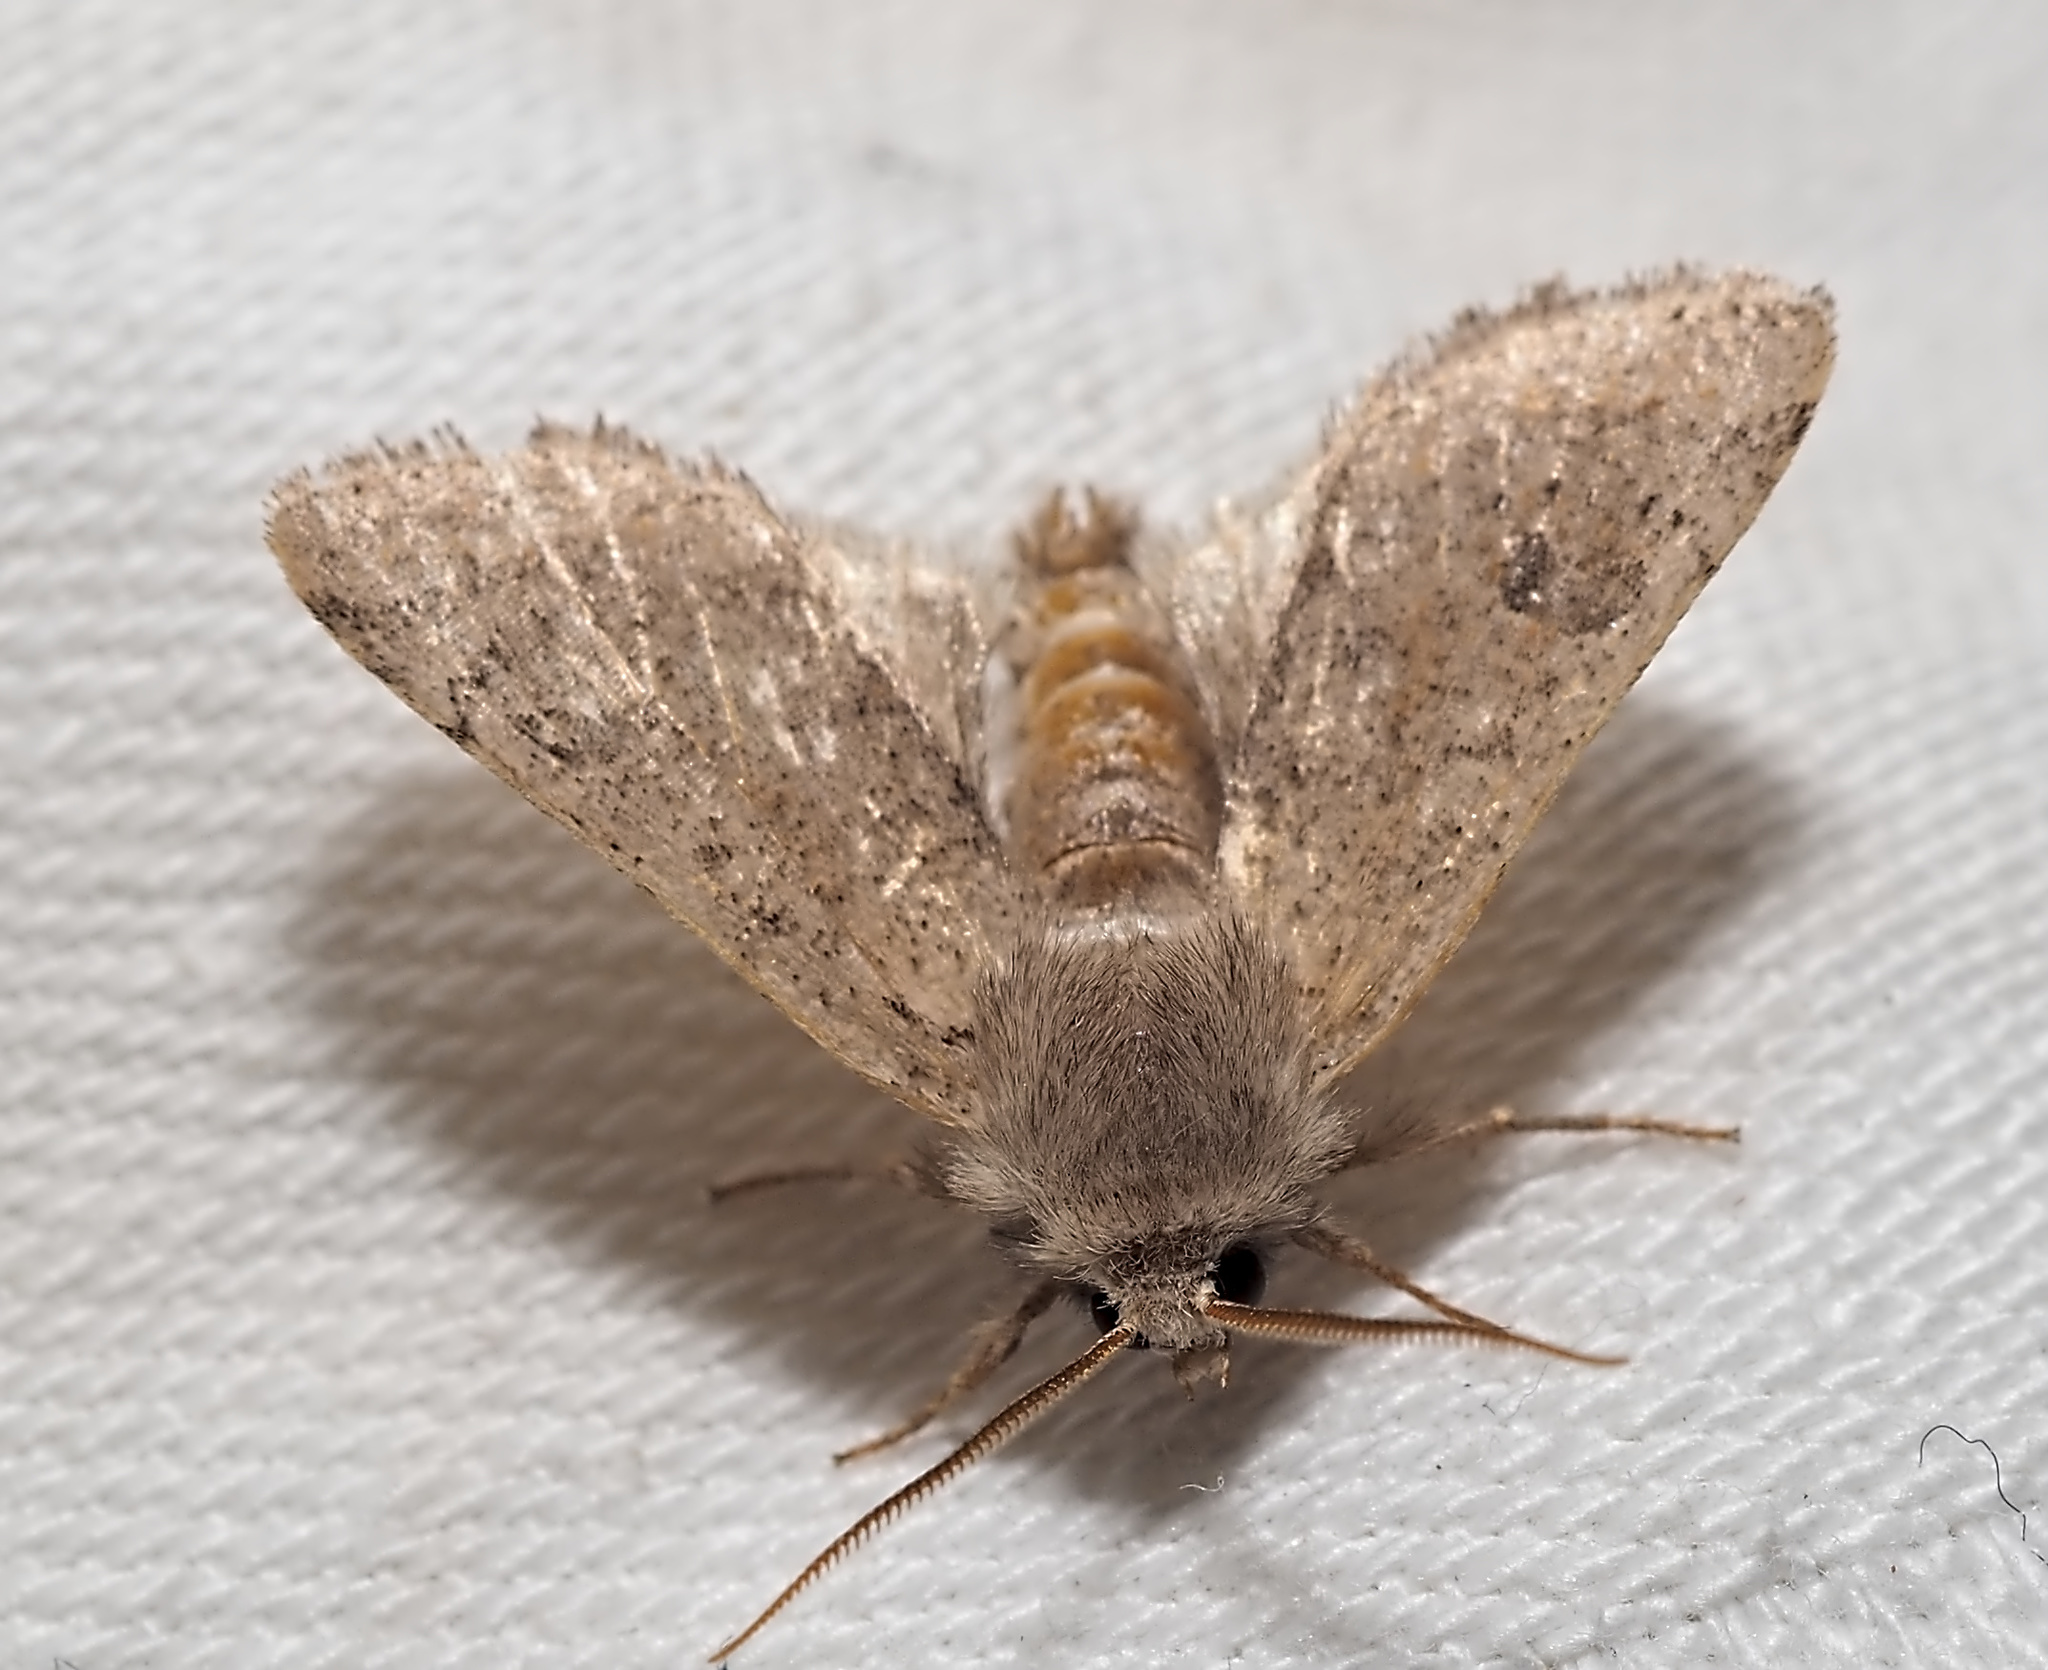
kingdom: Animalia
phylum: Arthropoda
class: Insecta
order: Lepidoptera
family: Noctuidae
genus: Orthosia
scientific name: Orthosia cruda
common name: Small quaker
